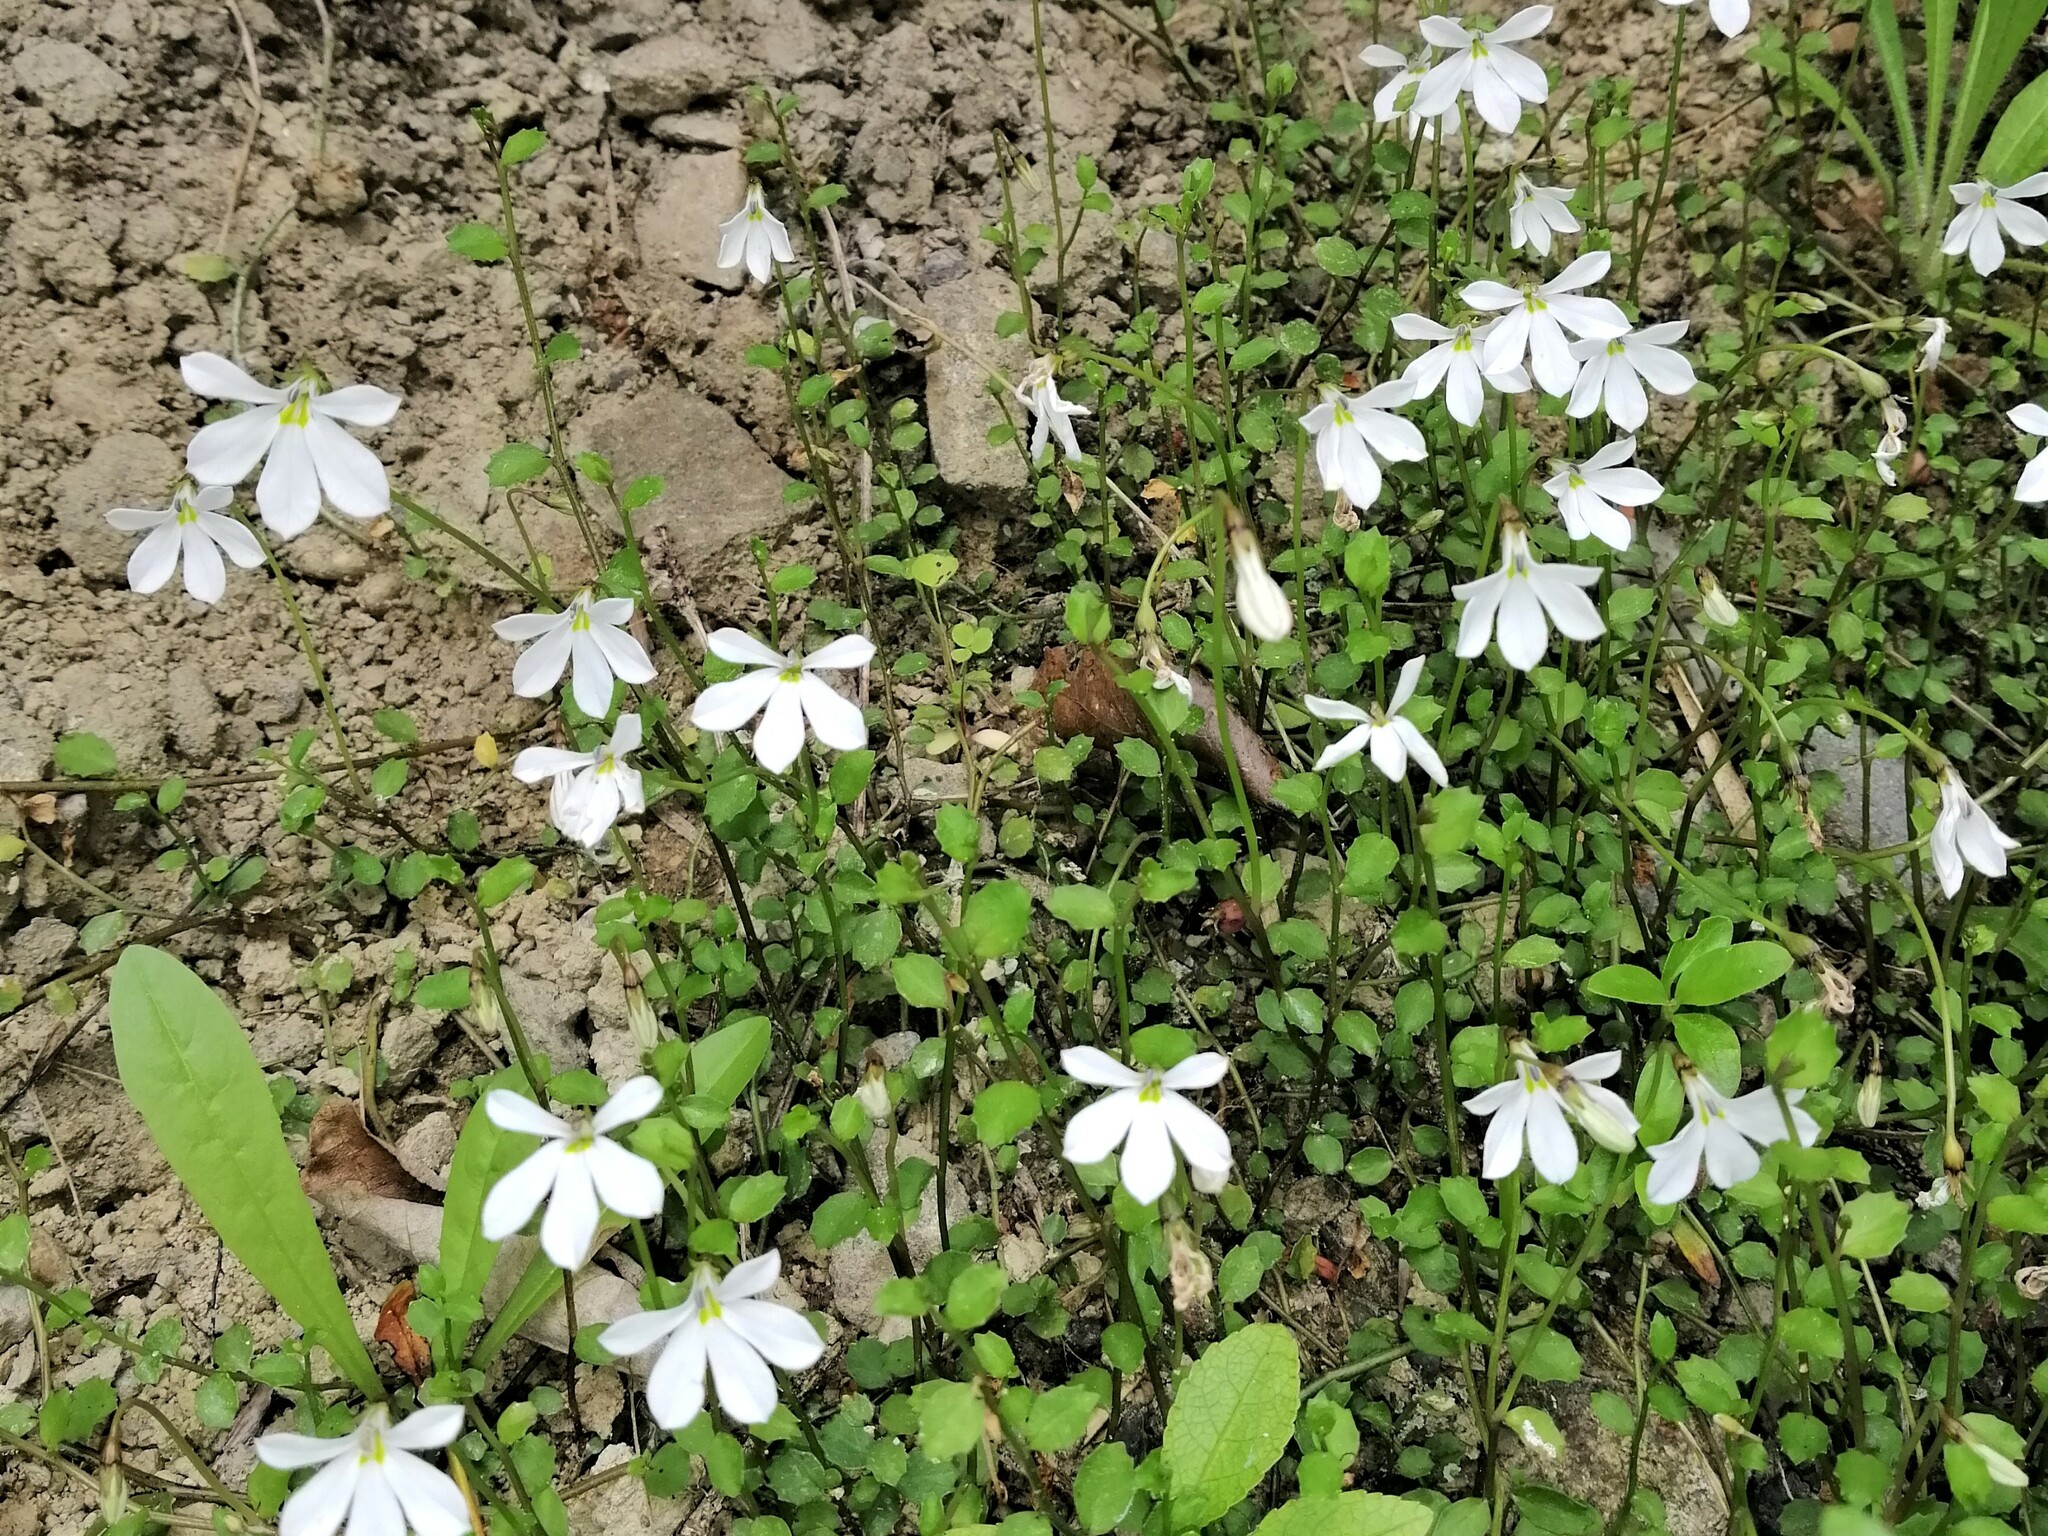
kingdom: Plantae
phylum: Tracheophyta
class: Magnoliopsida
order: Asterales
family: Campanulaceae
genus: Lobelia
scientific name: Lobelia angulata
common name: Lawn lobelia
